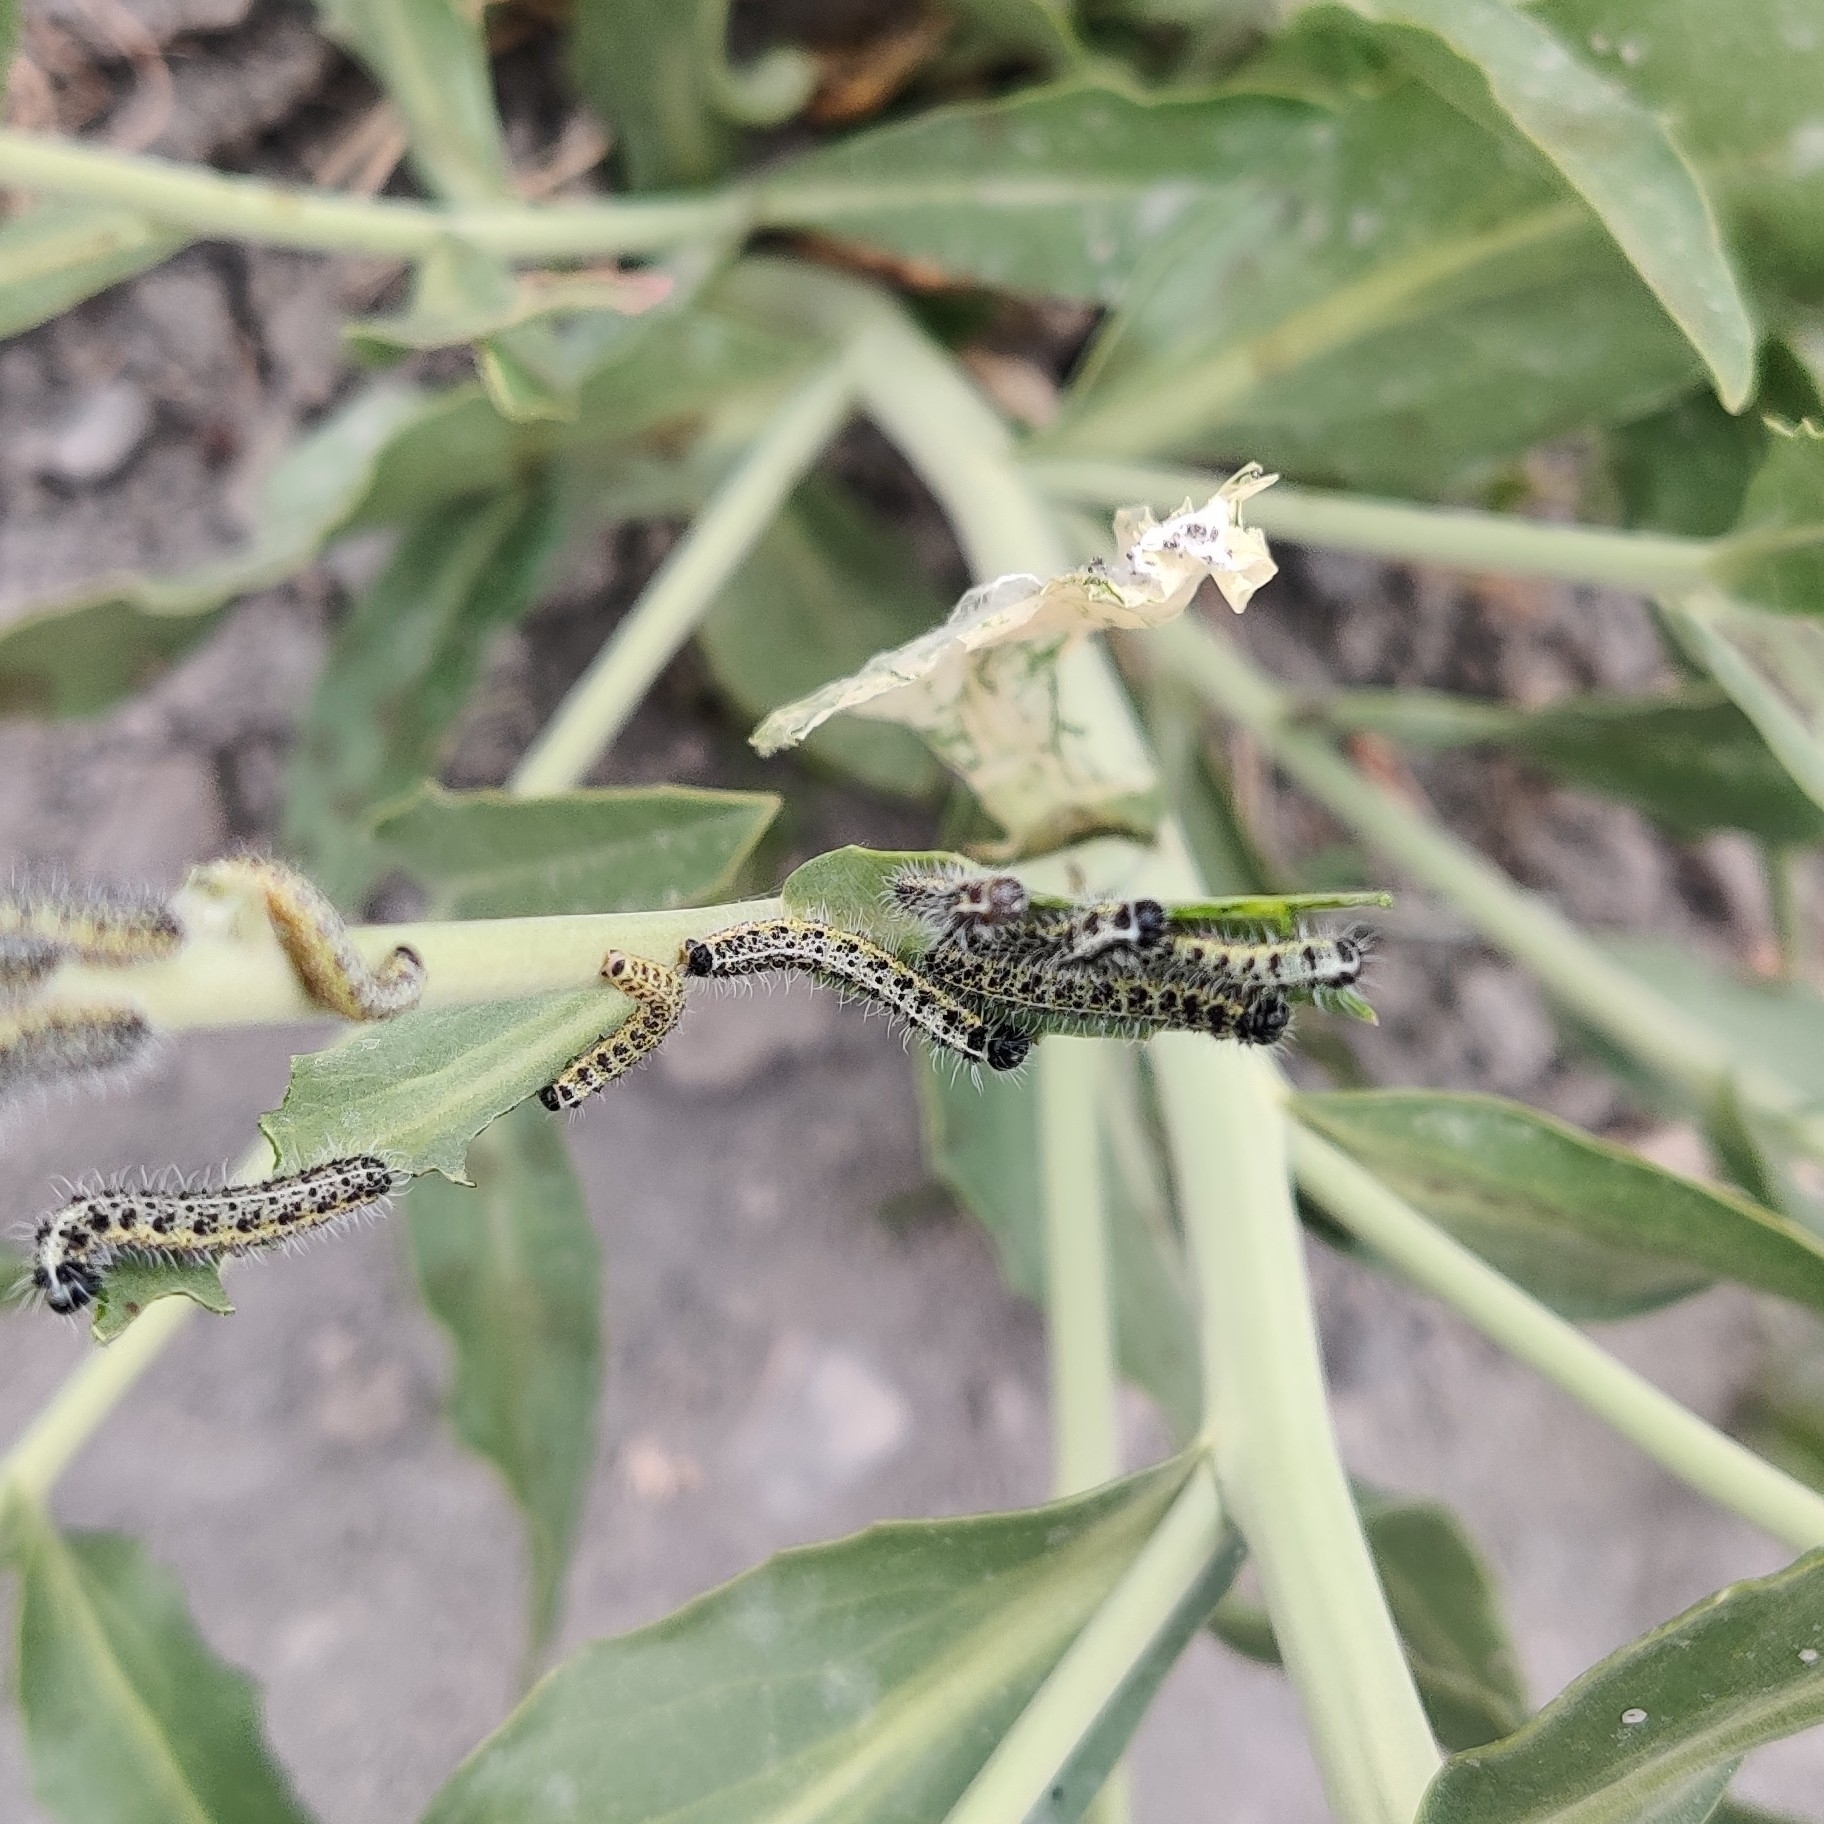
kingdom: Animalia
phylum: Arthropoda
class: Insecta
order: Lepidoptera
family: Pieridae
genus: Pieris
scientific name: Pieris brassicae
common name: Large white
